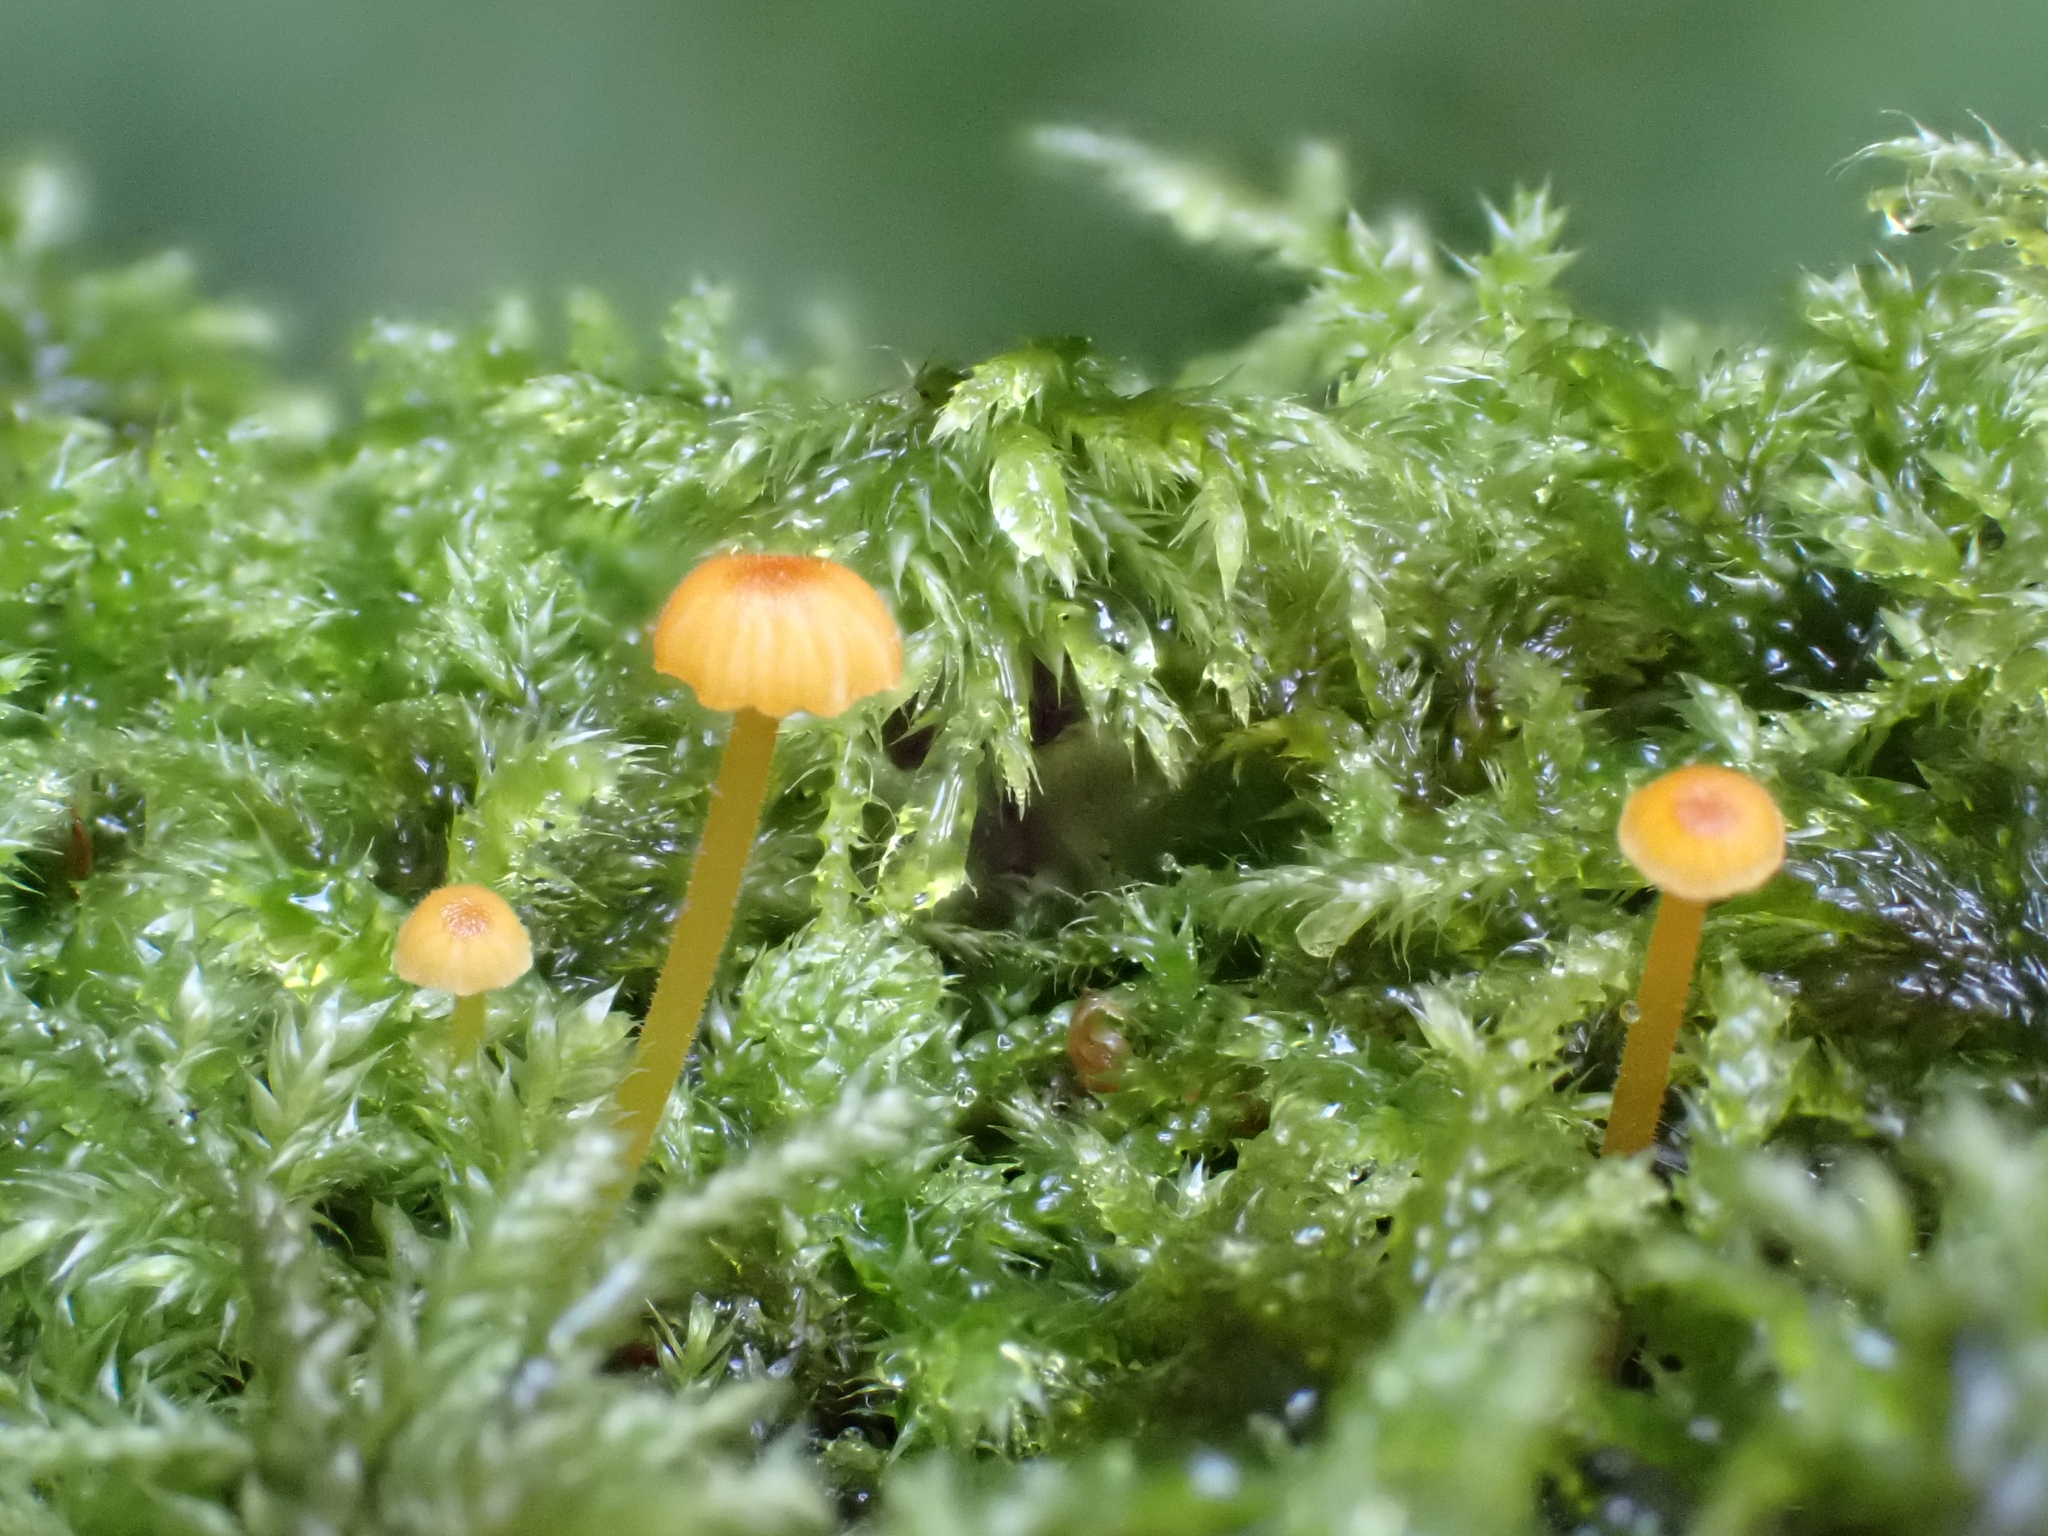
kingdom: Fungi
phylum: Basidiomycota
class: Agaricomycetes
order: Hymenochaetales
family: Rickenellaceae
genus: Rickenella
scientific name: Rickenella fibula
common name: Orange mosscap
